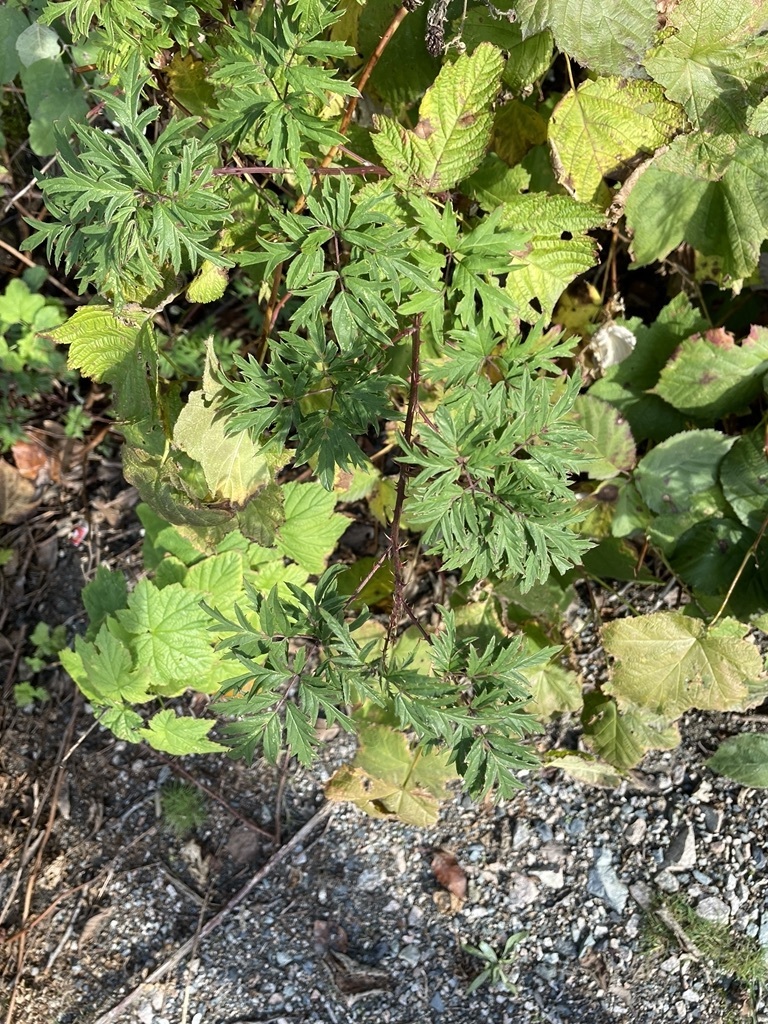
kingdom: Plantae
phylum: Tracheophyta
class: Magnoliopsida
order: Rosales
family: Rosaceae
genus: Rubus
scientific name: Rubus laciniatus
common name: Evergreen blackberry
